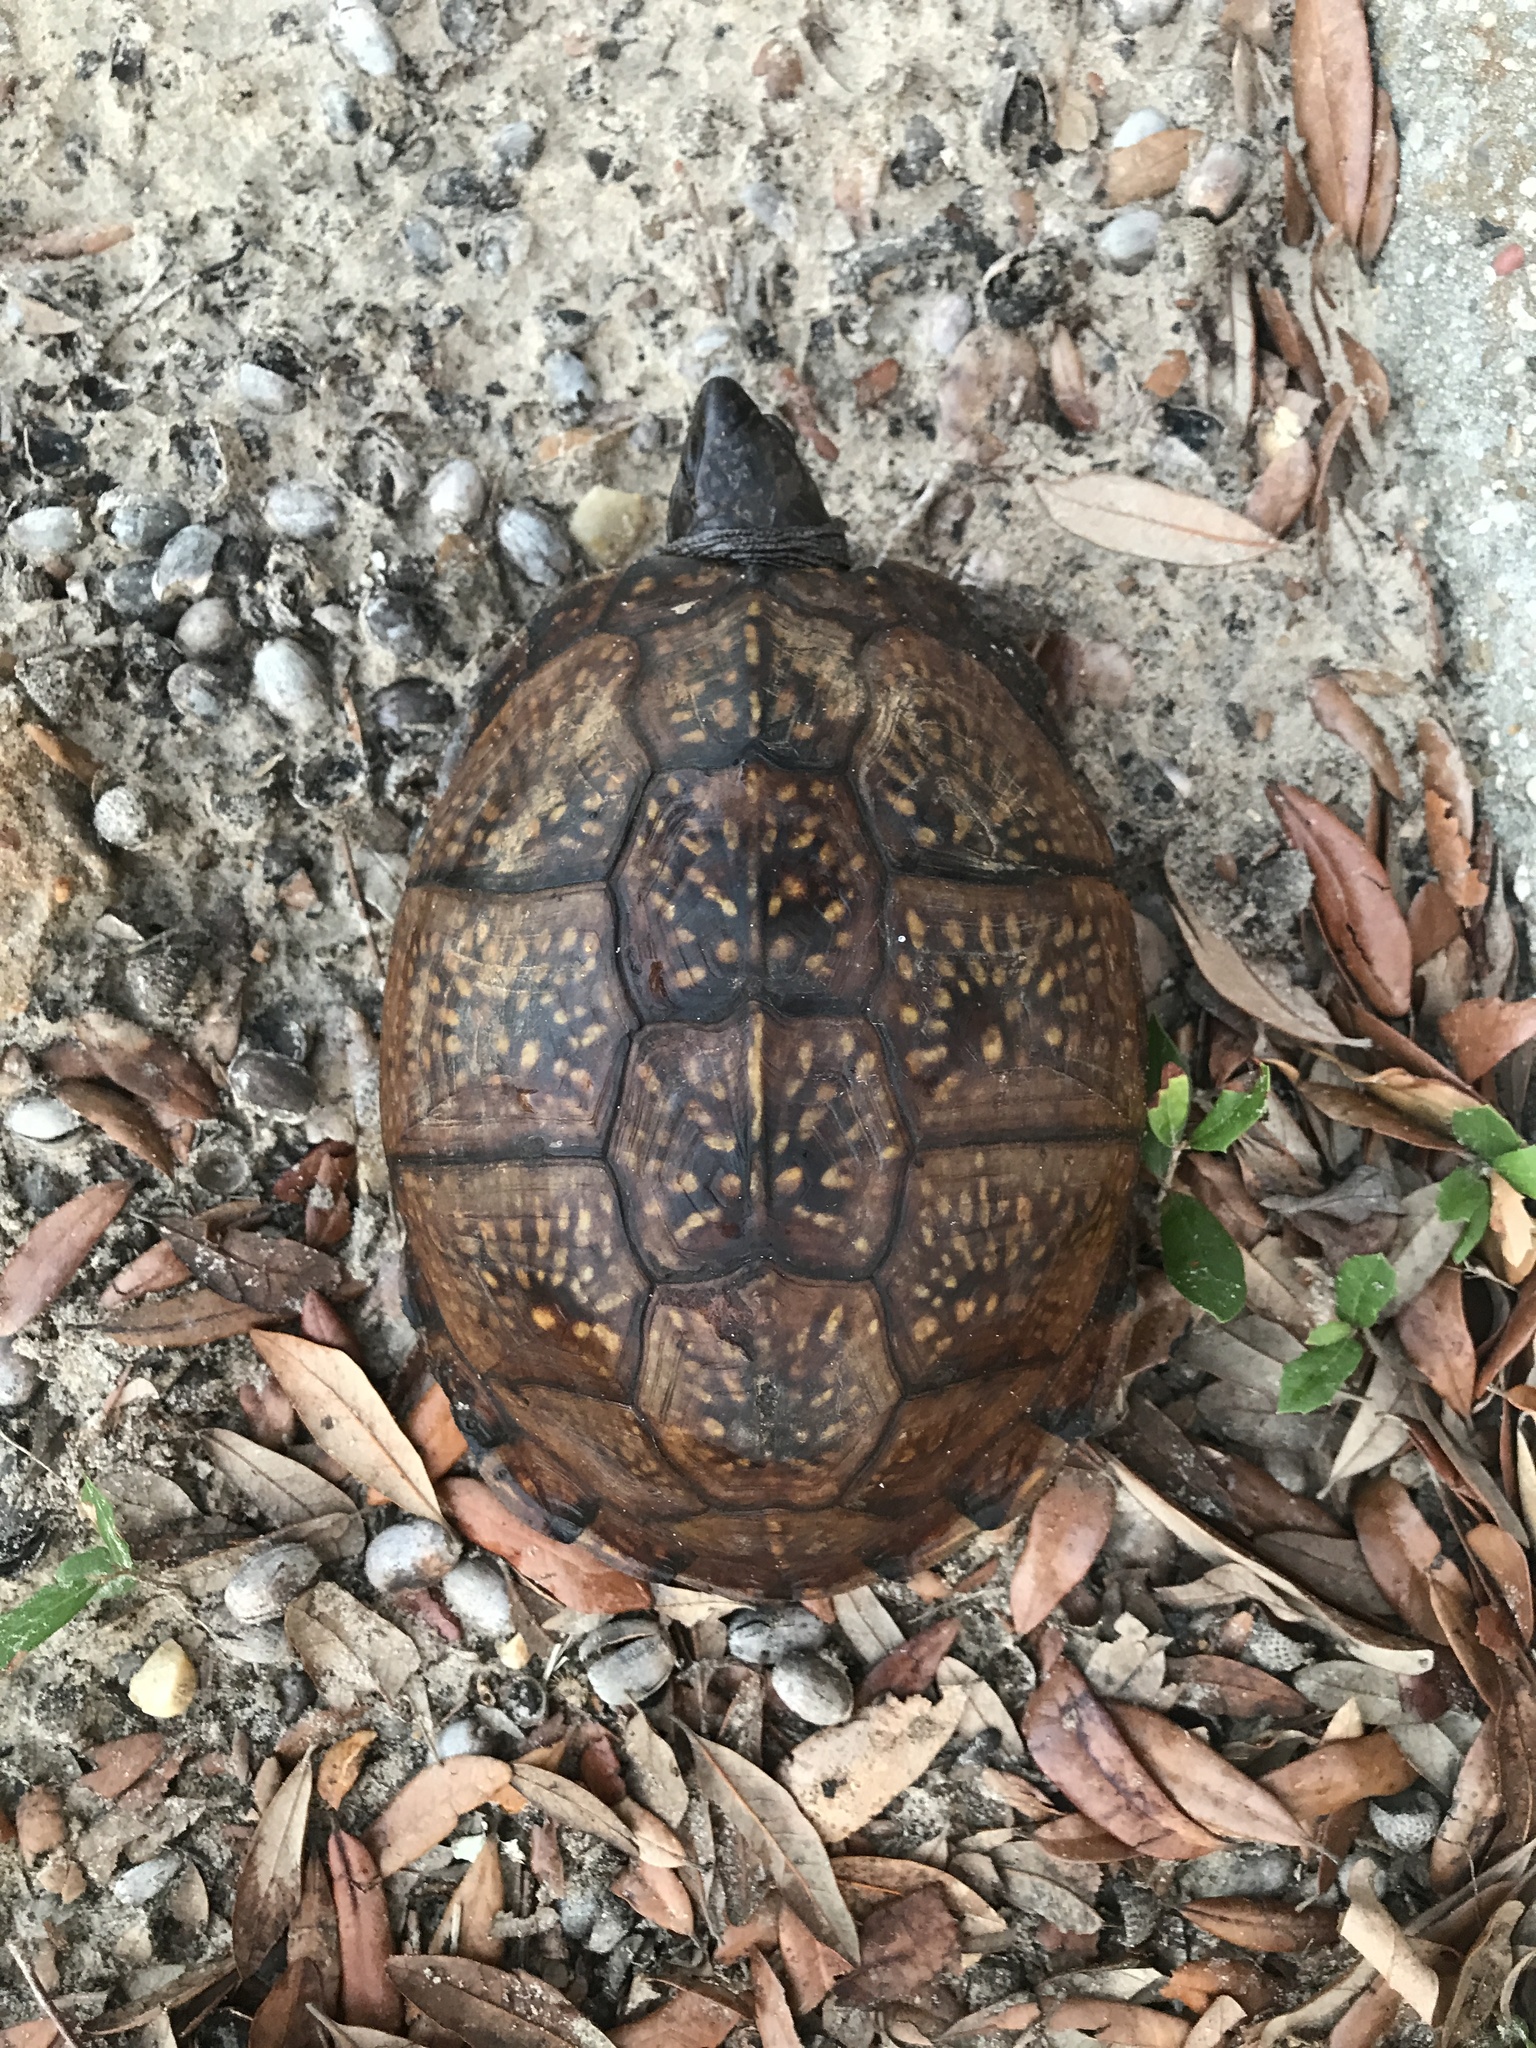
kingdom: Animalia
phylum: Chordata
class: Testudines
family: Emydidae
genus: Terrapene
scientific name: Terrapene carolina
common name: Common box turtle
